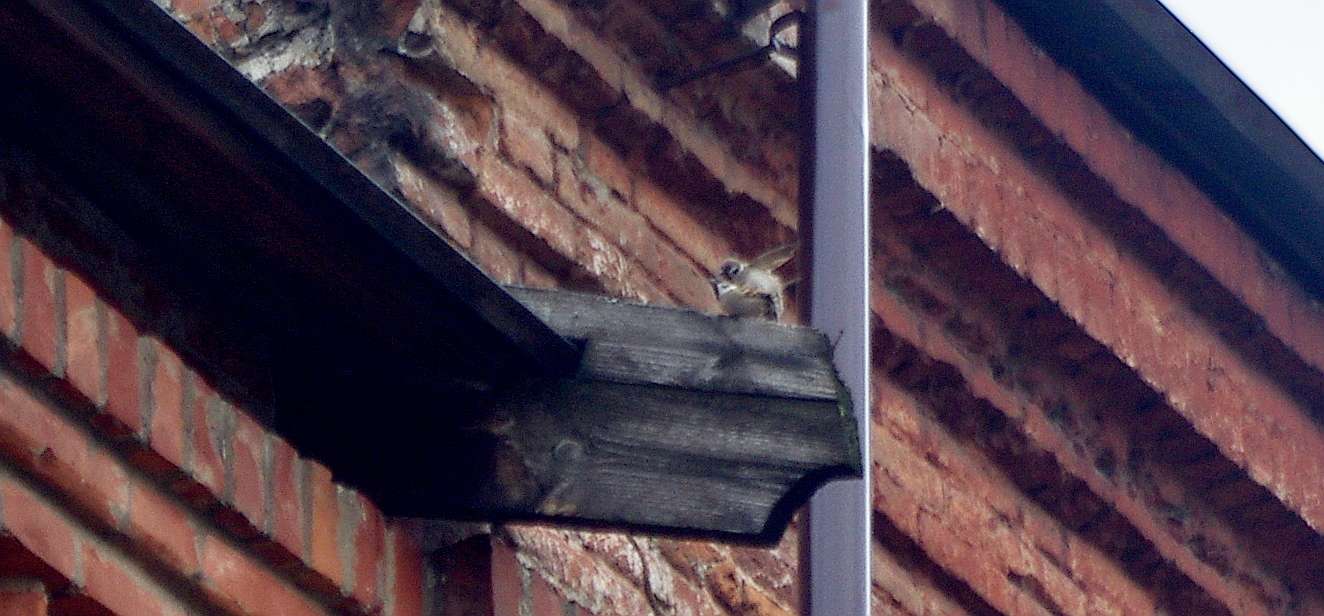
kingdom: Animalia
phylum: Chordata
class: Aves
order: Passeriformes
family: Passeridae
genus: Passer
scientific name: Passer montanus
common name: Eurasian tree sparrow
